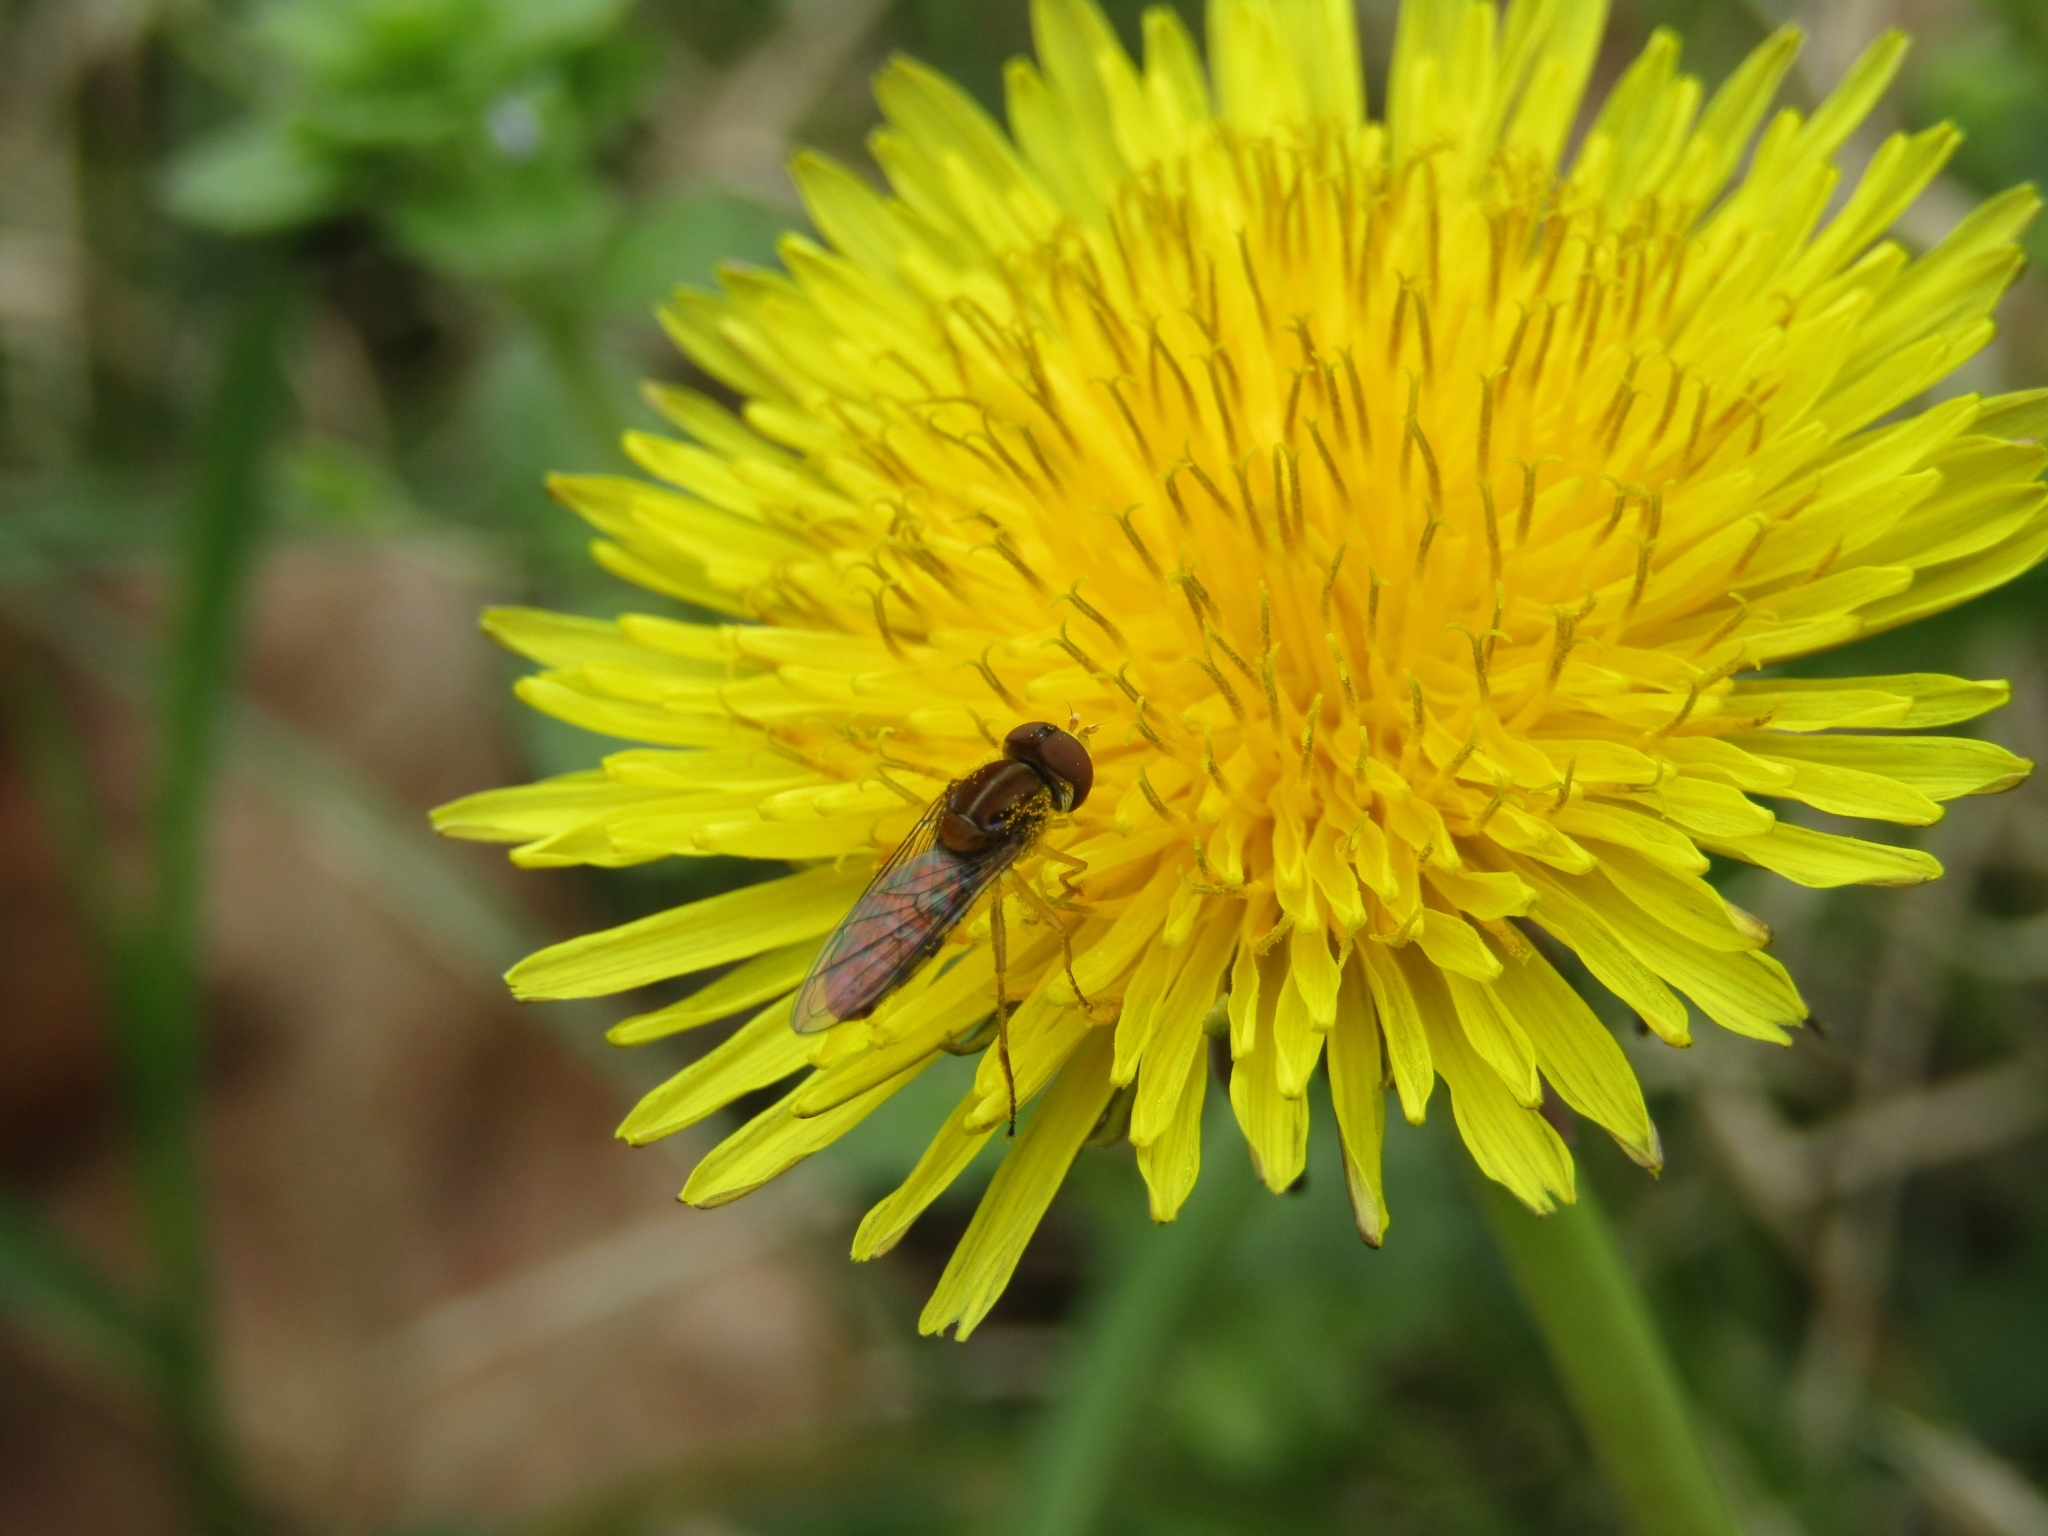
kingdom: Animalia
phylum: Arthropoda
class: Insecta
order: Diptera
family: Syrphidae
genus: Toxomerus
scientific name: Toxomerus
